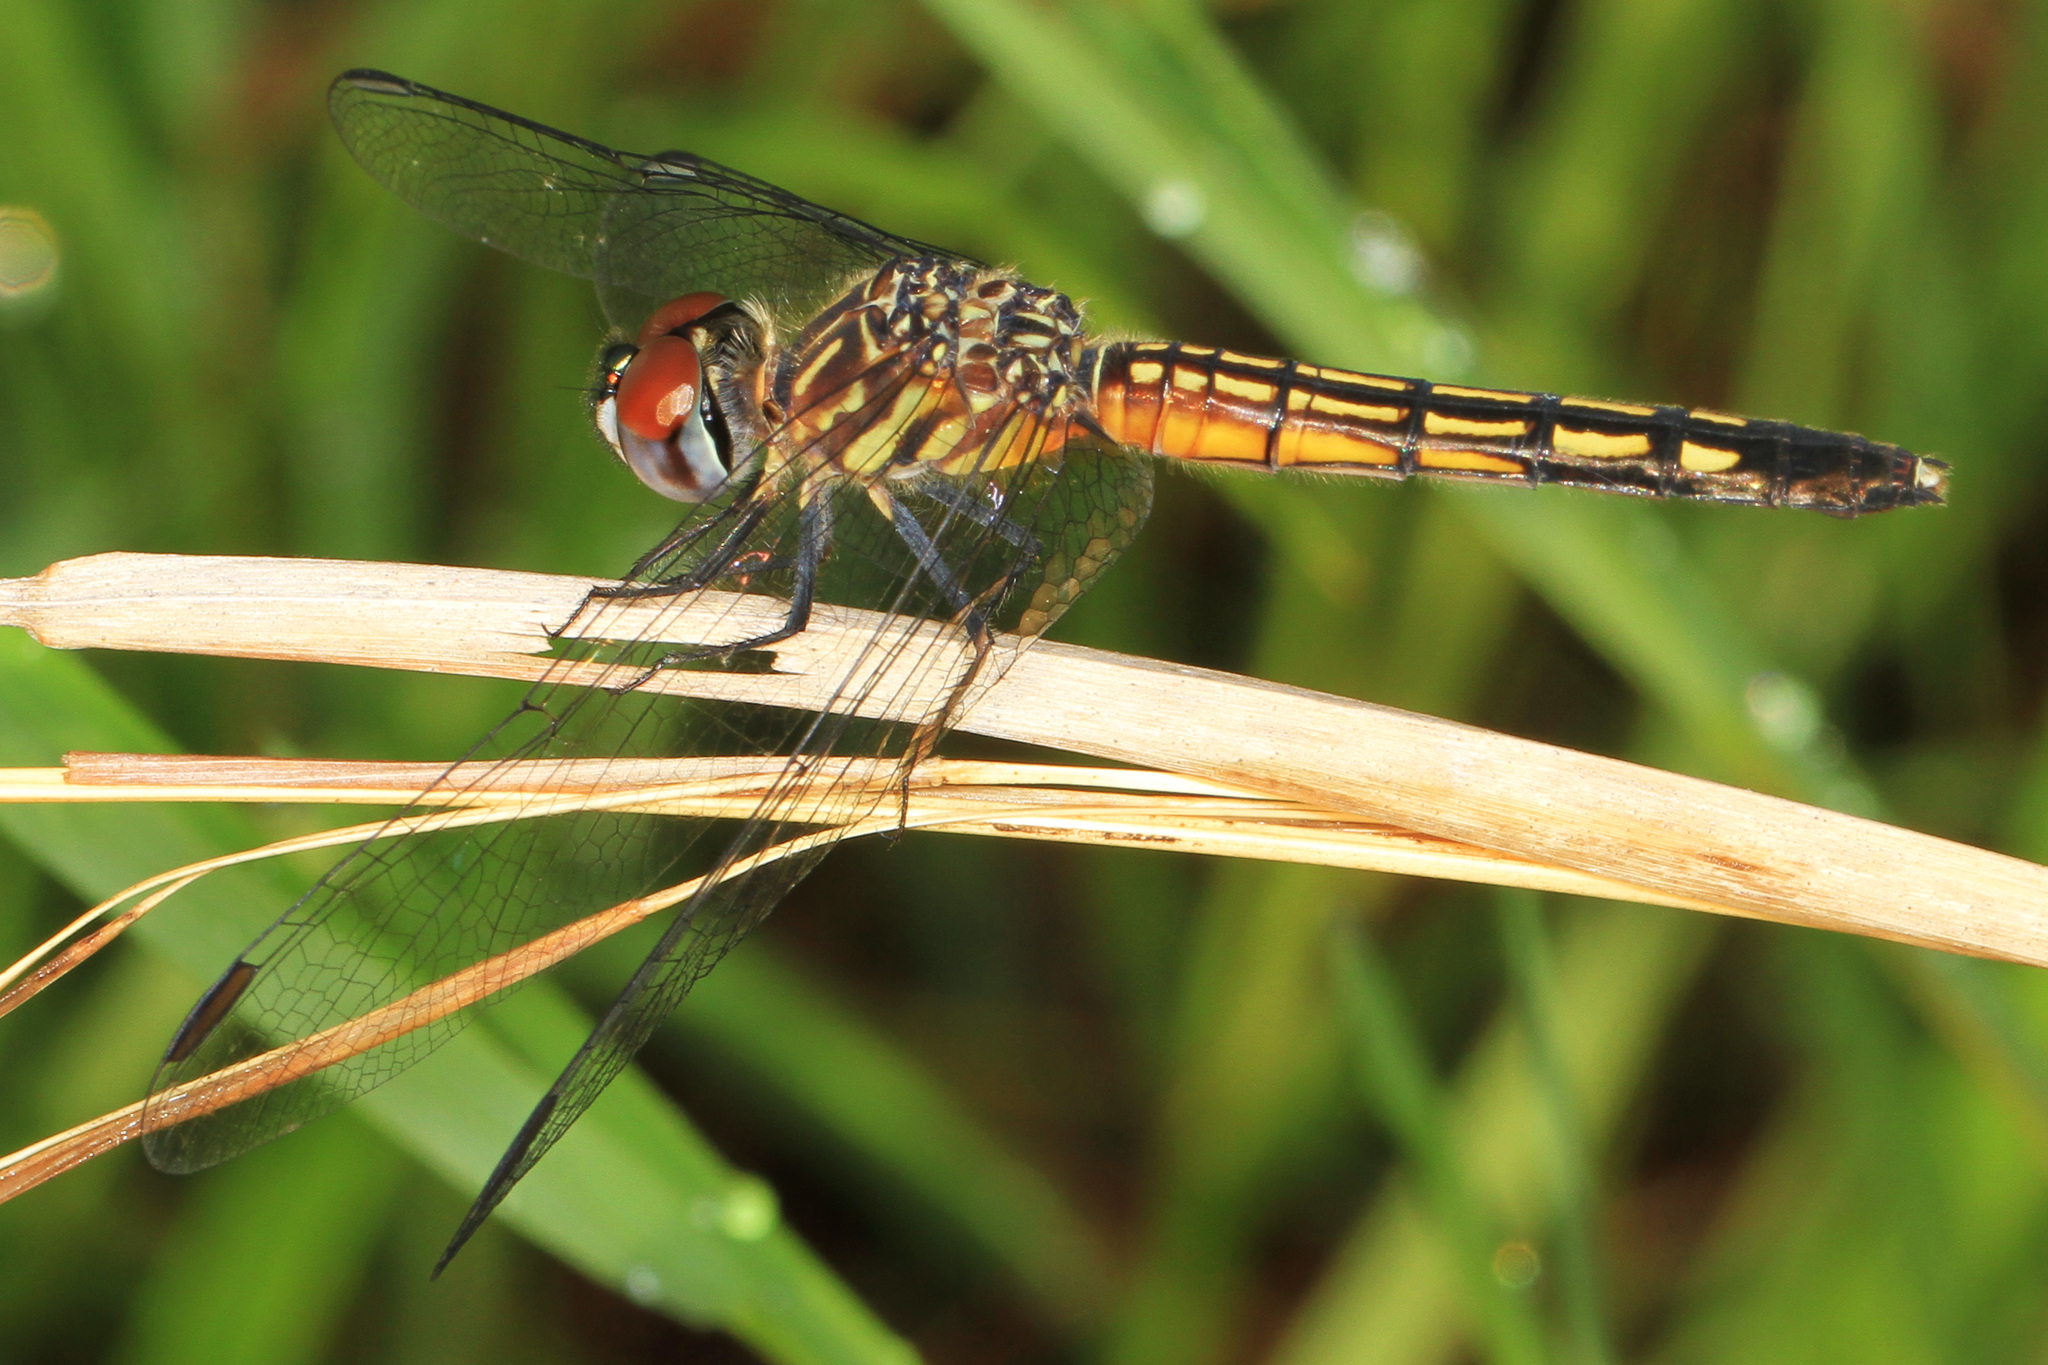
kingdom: Animalia
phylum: Arthropoda
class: Insecta
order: Odonata
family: Libellulidae
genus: Pachydiplax
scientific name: Pachydiplax longipennis
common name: Blue dasher
